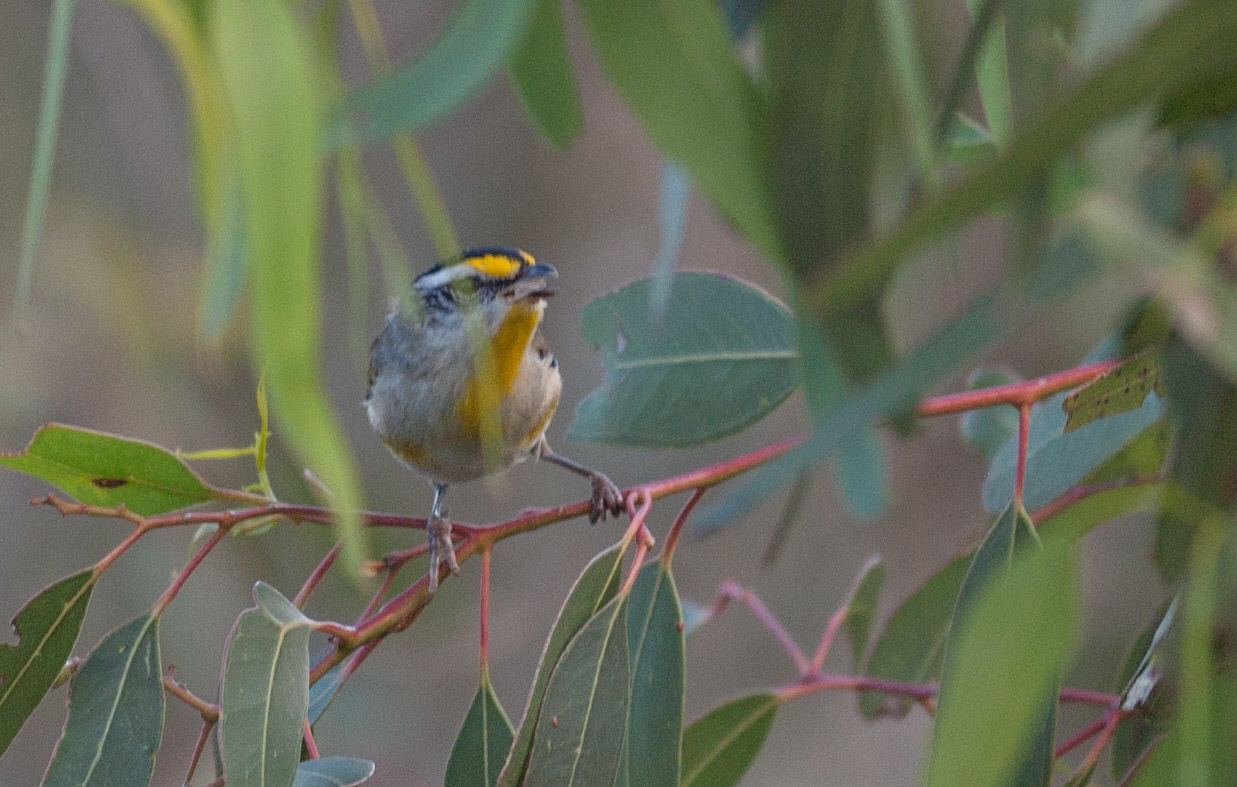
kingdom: Animalia
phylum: Chordata
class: Aves
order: Passeriformes
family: Pardalotidae
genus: Pardalotus
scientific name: Pardalotus striatus
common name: Striated pardalote
